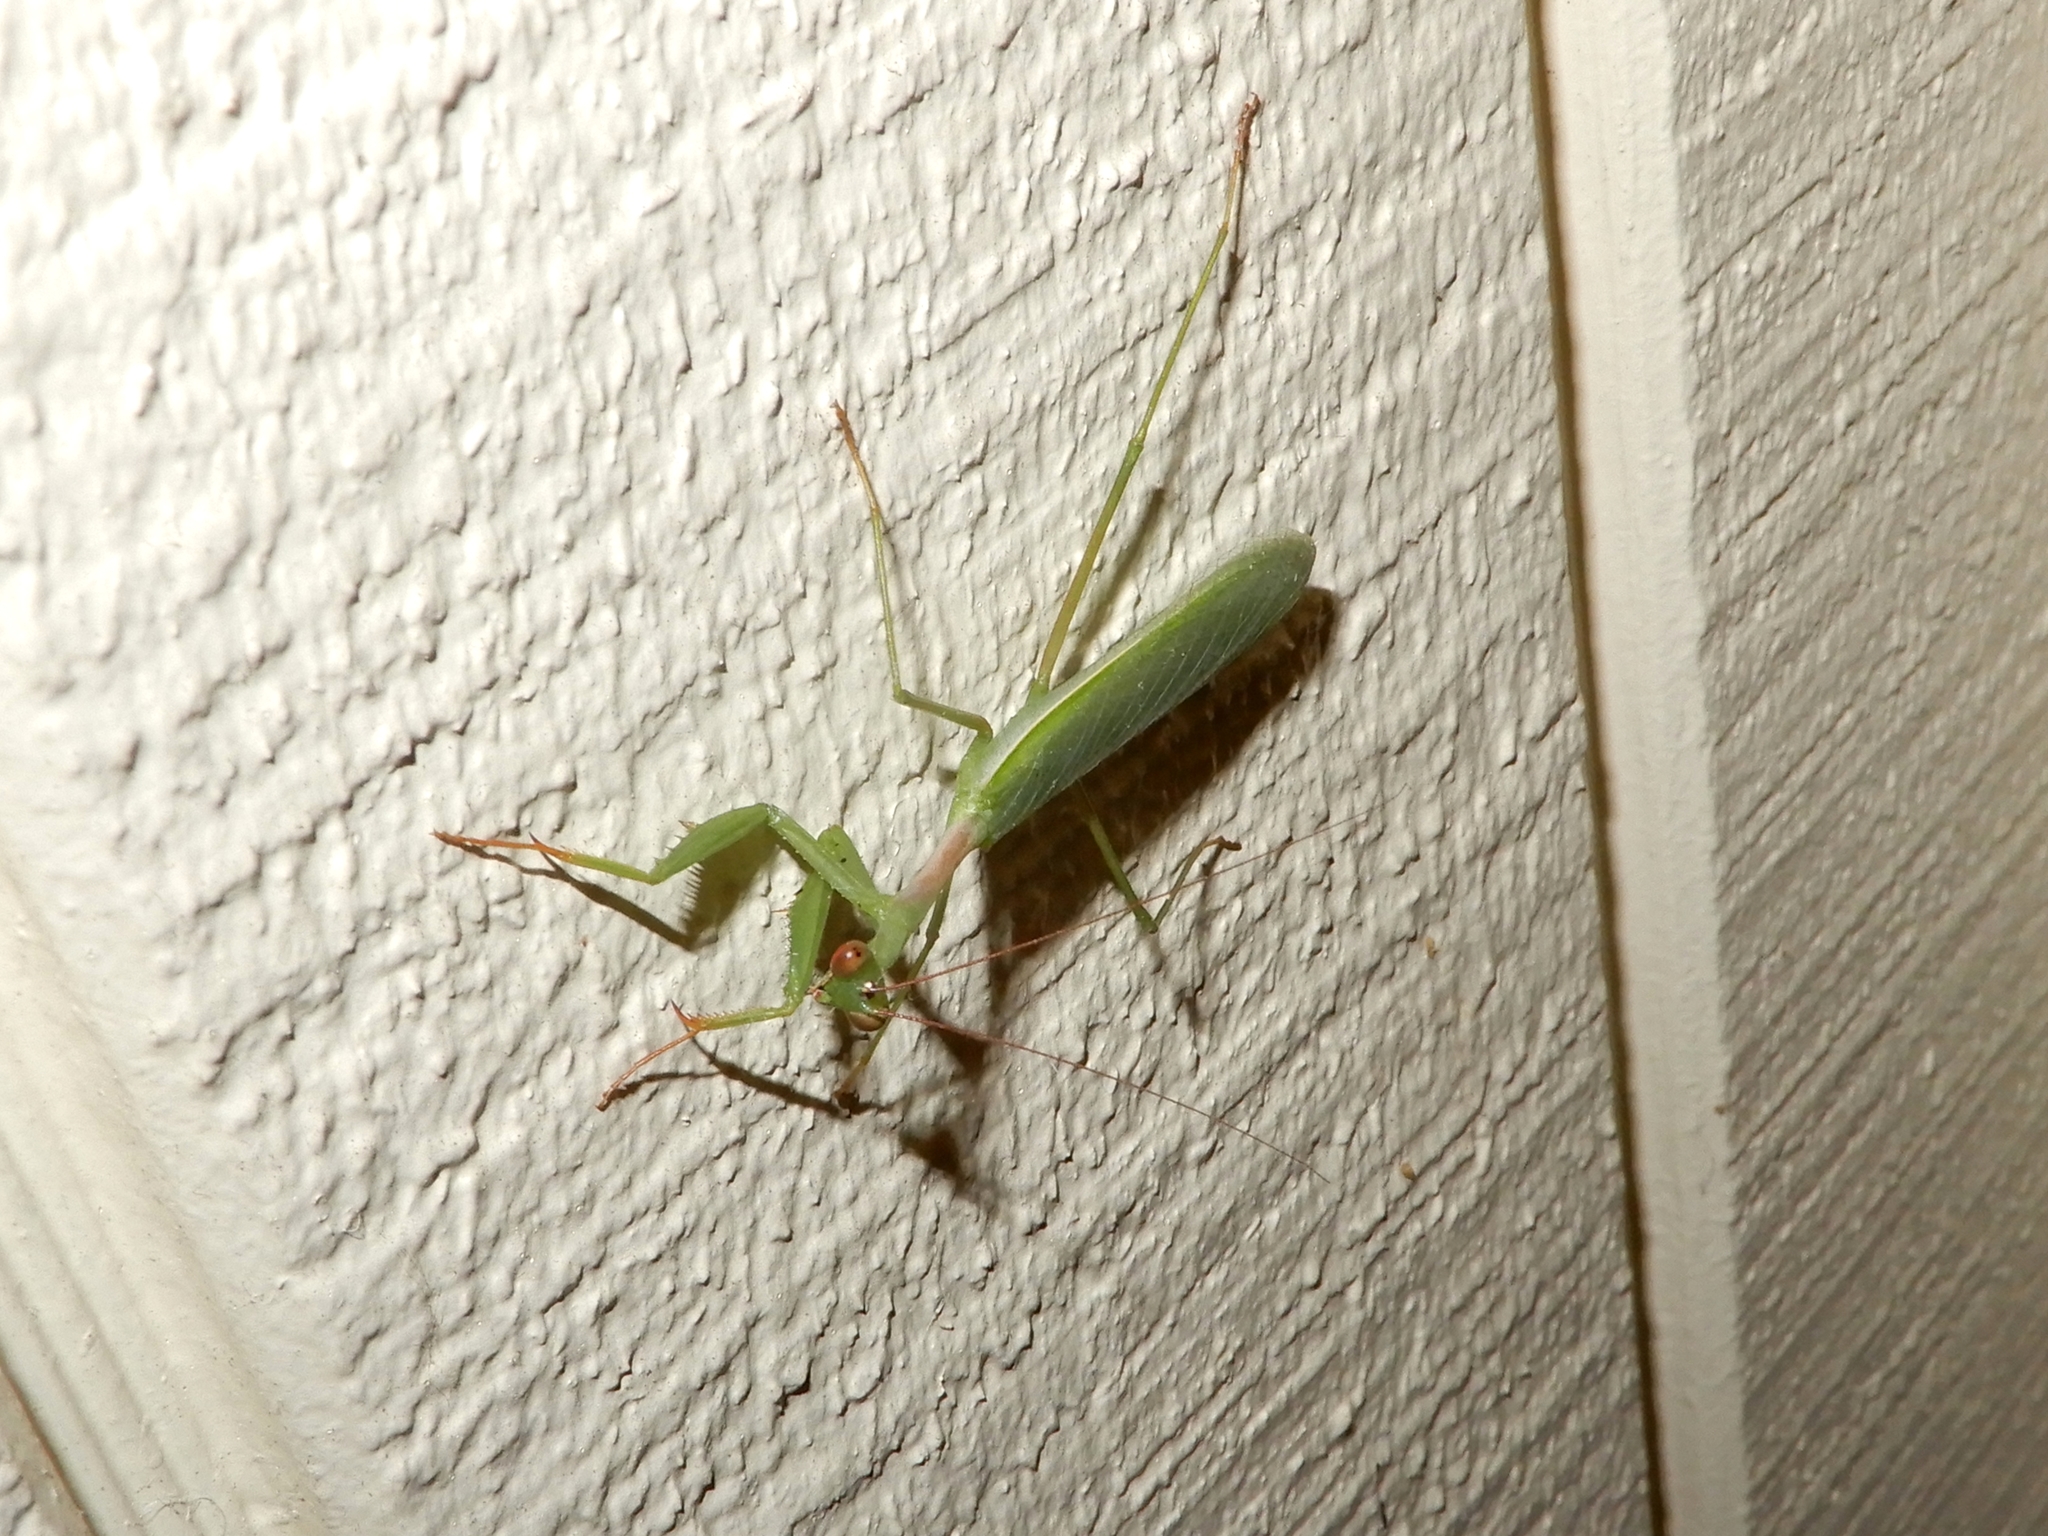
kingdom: Animalia
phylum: Arthropoda
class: Insecta
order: Mantodea
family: Miomantidae
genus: Miomantis
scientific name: Miomantis caffra
